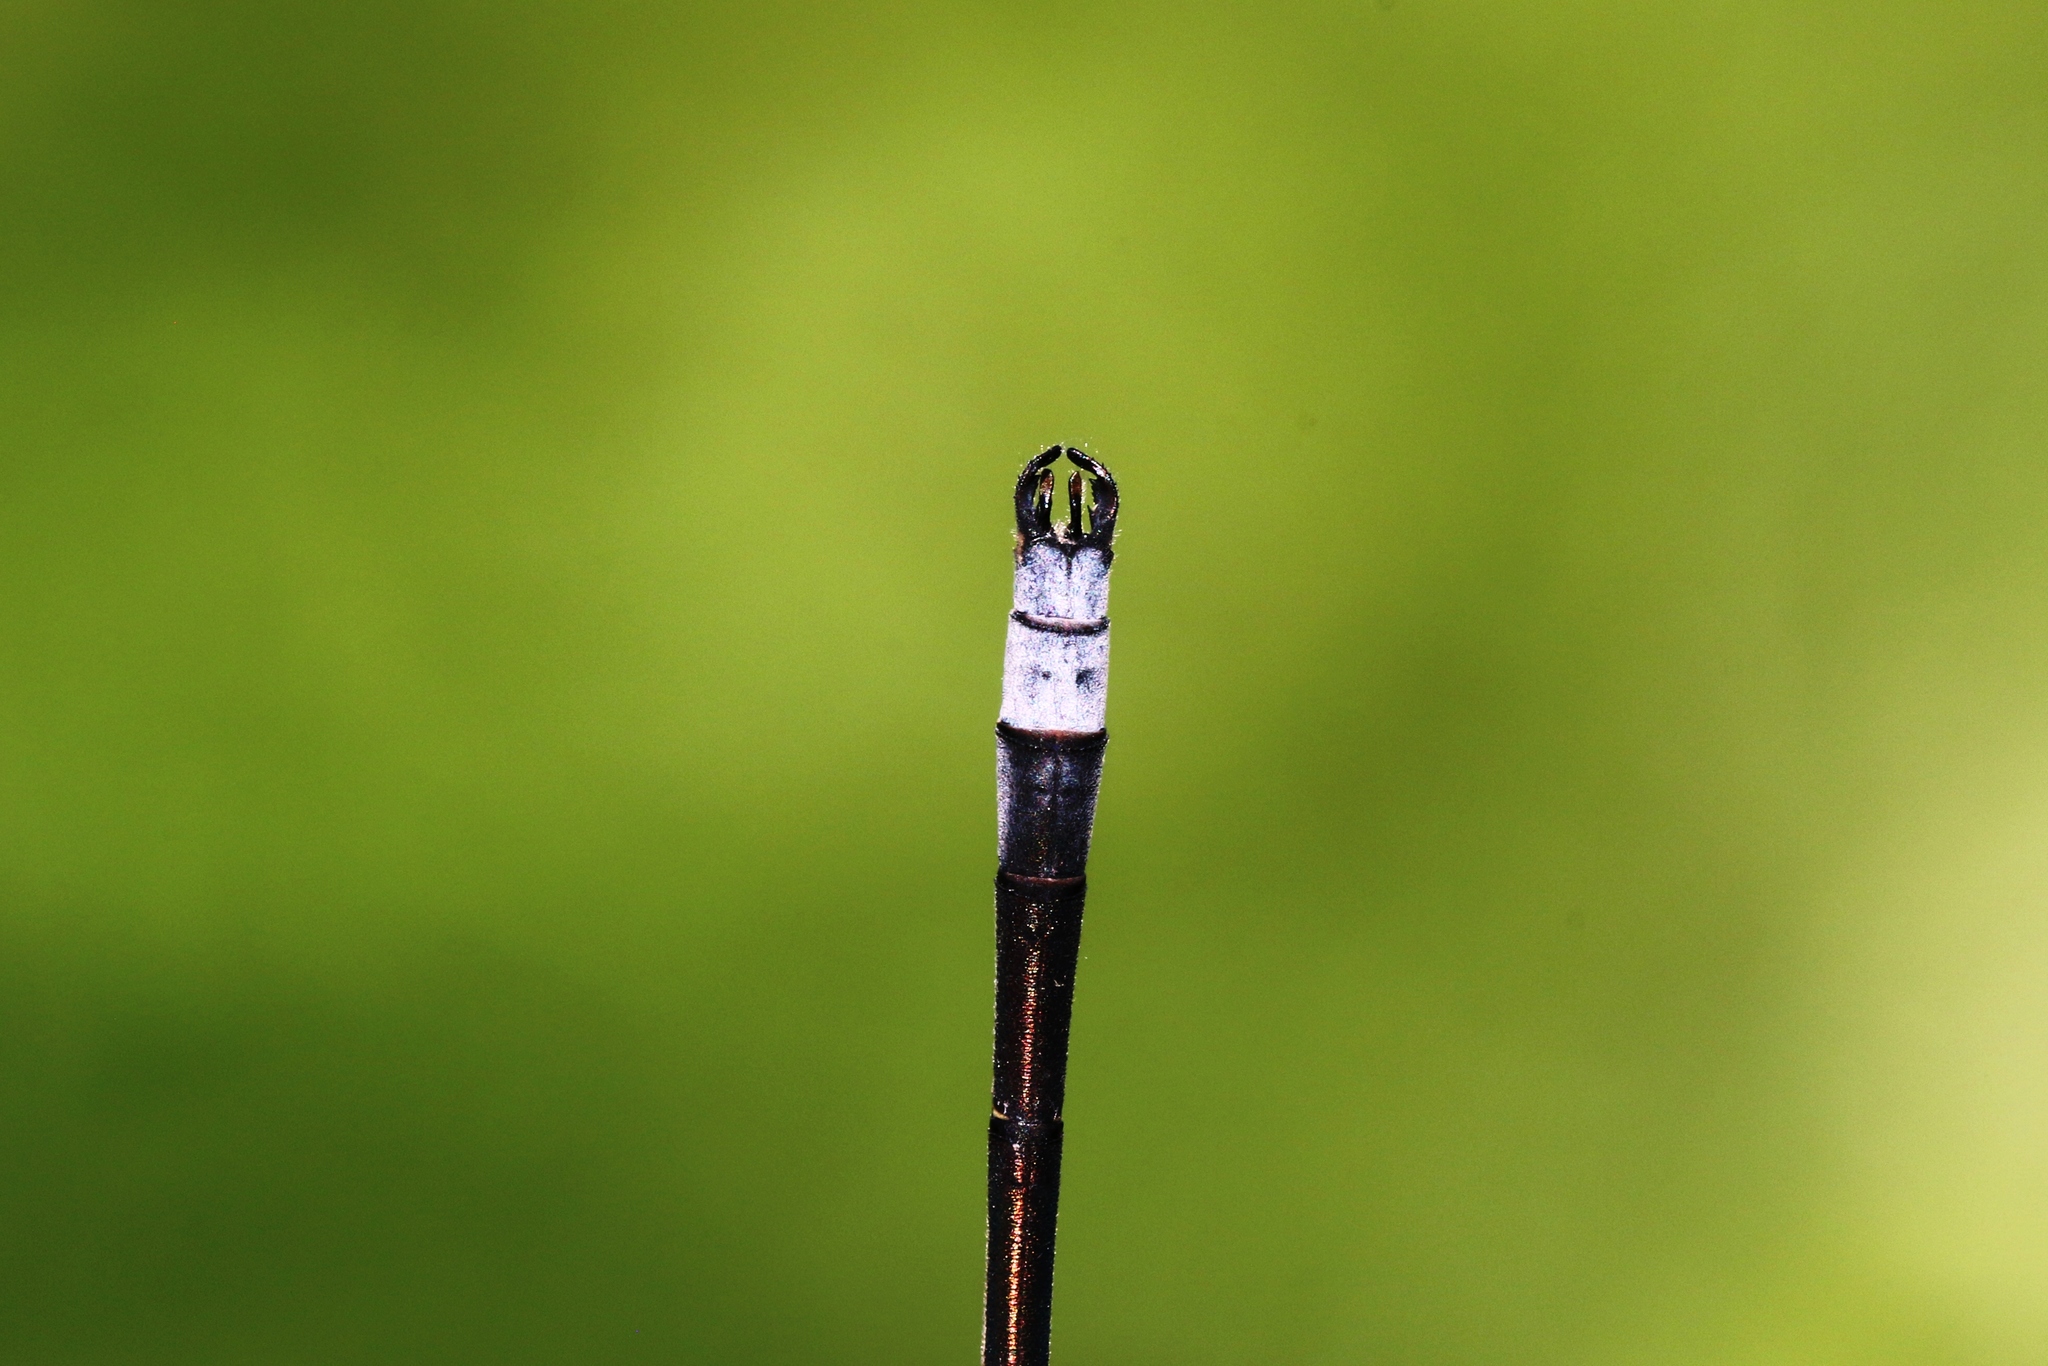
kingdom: Animalia
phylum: Arthropoda
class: Insecta
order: Odonata
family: Lestidae
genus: Lestes
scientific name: Lestes disjunctus
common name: Northern spreadwing
